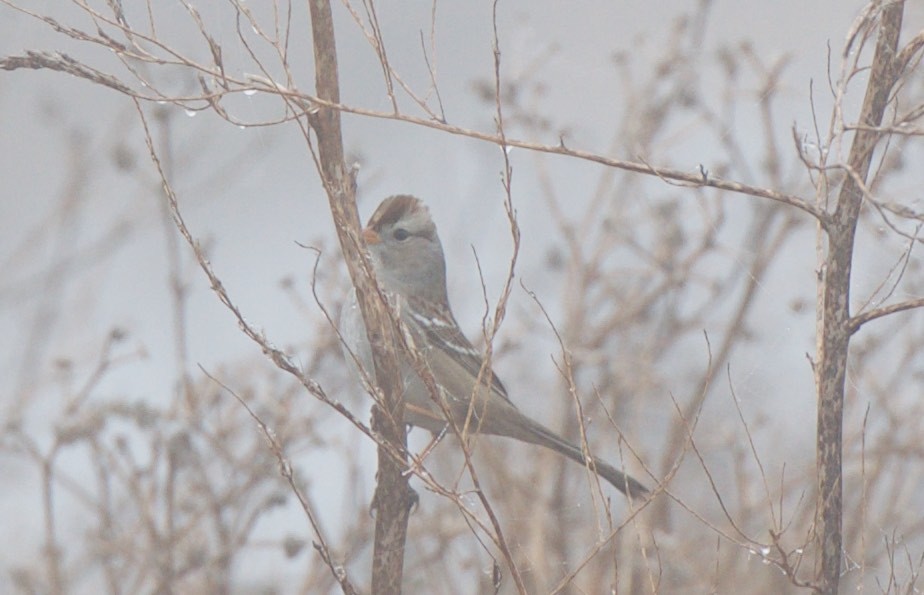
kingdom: Animalia
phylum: Chordata
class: Aves
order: Passeriformes
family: Passerellidae
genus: Zonotrichia
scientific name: Zonotrichia leucophrys
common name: White-crowned sparrow
